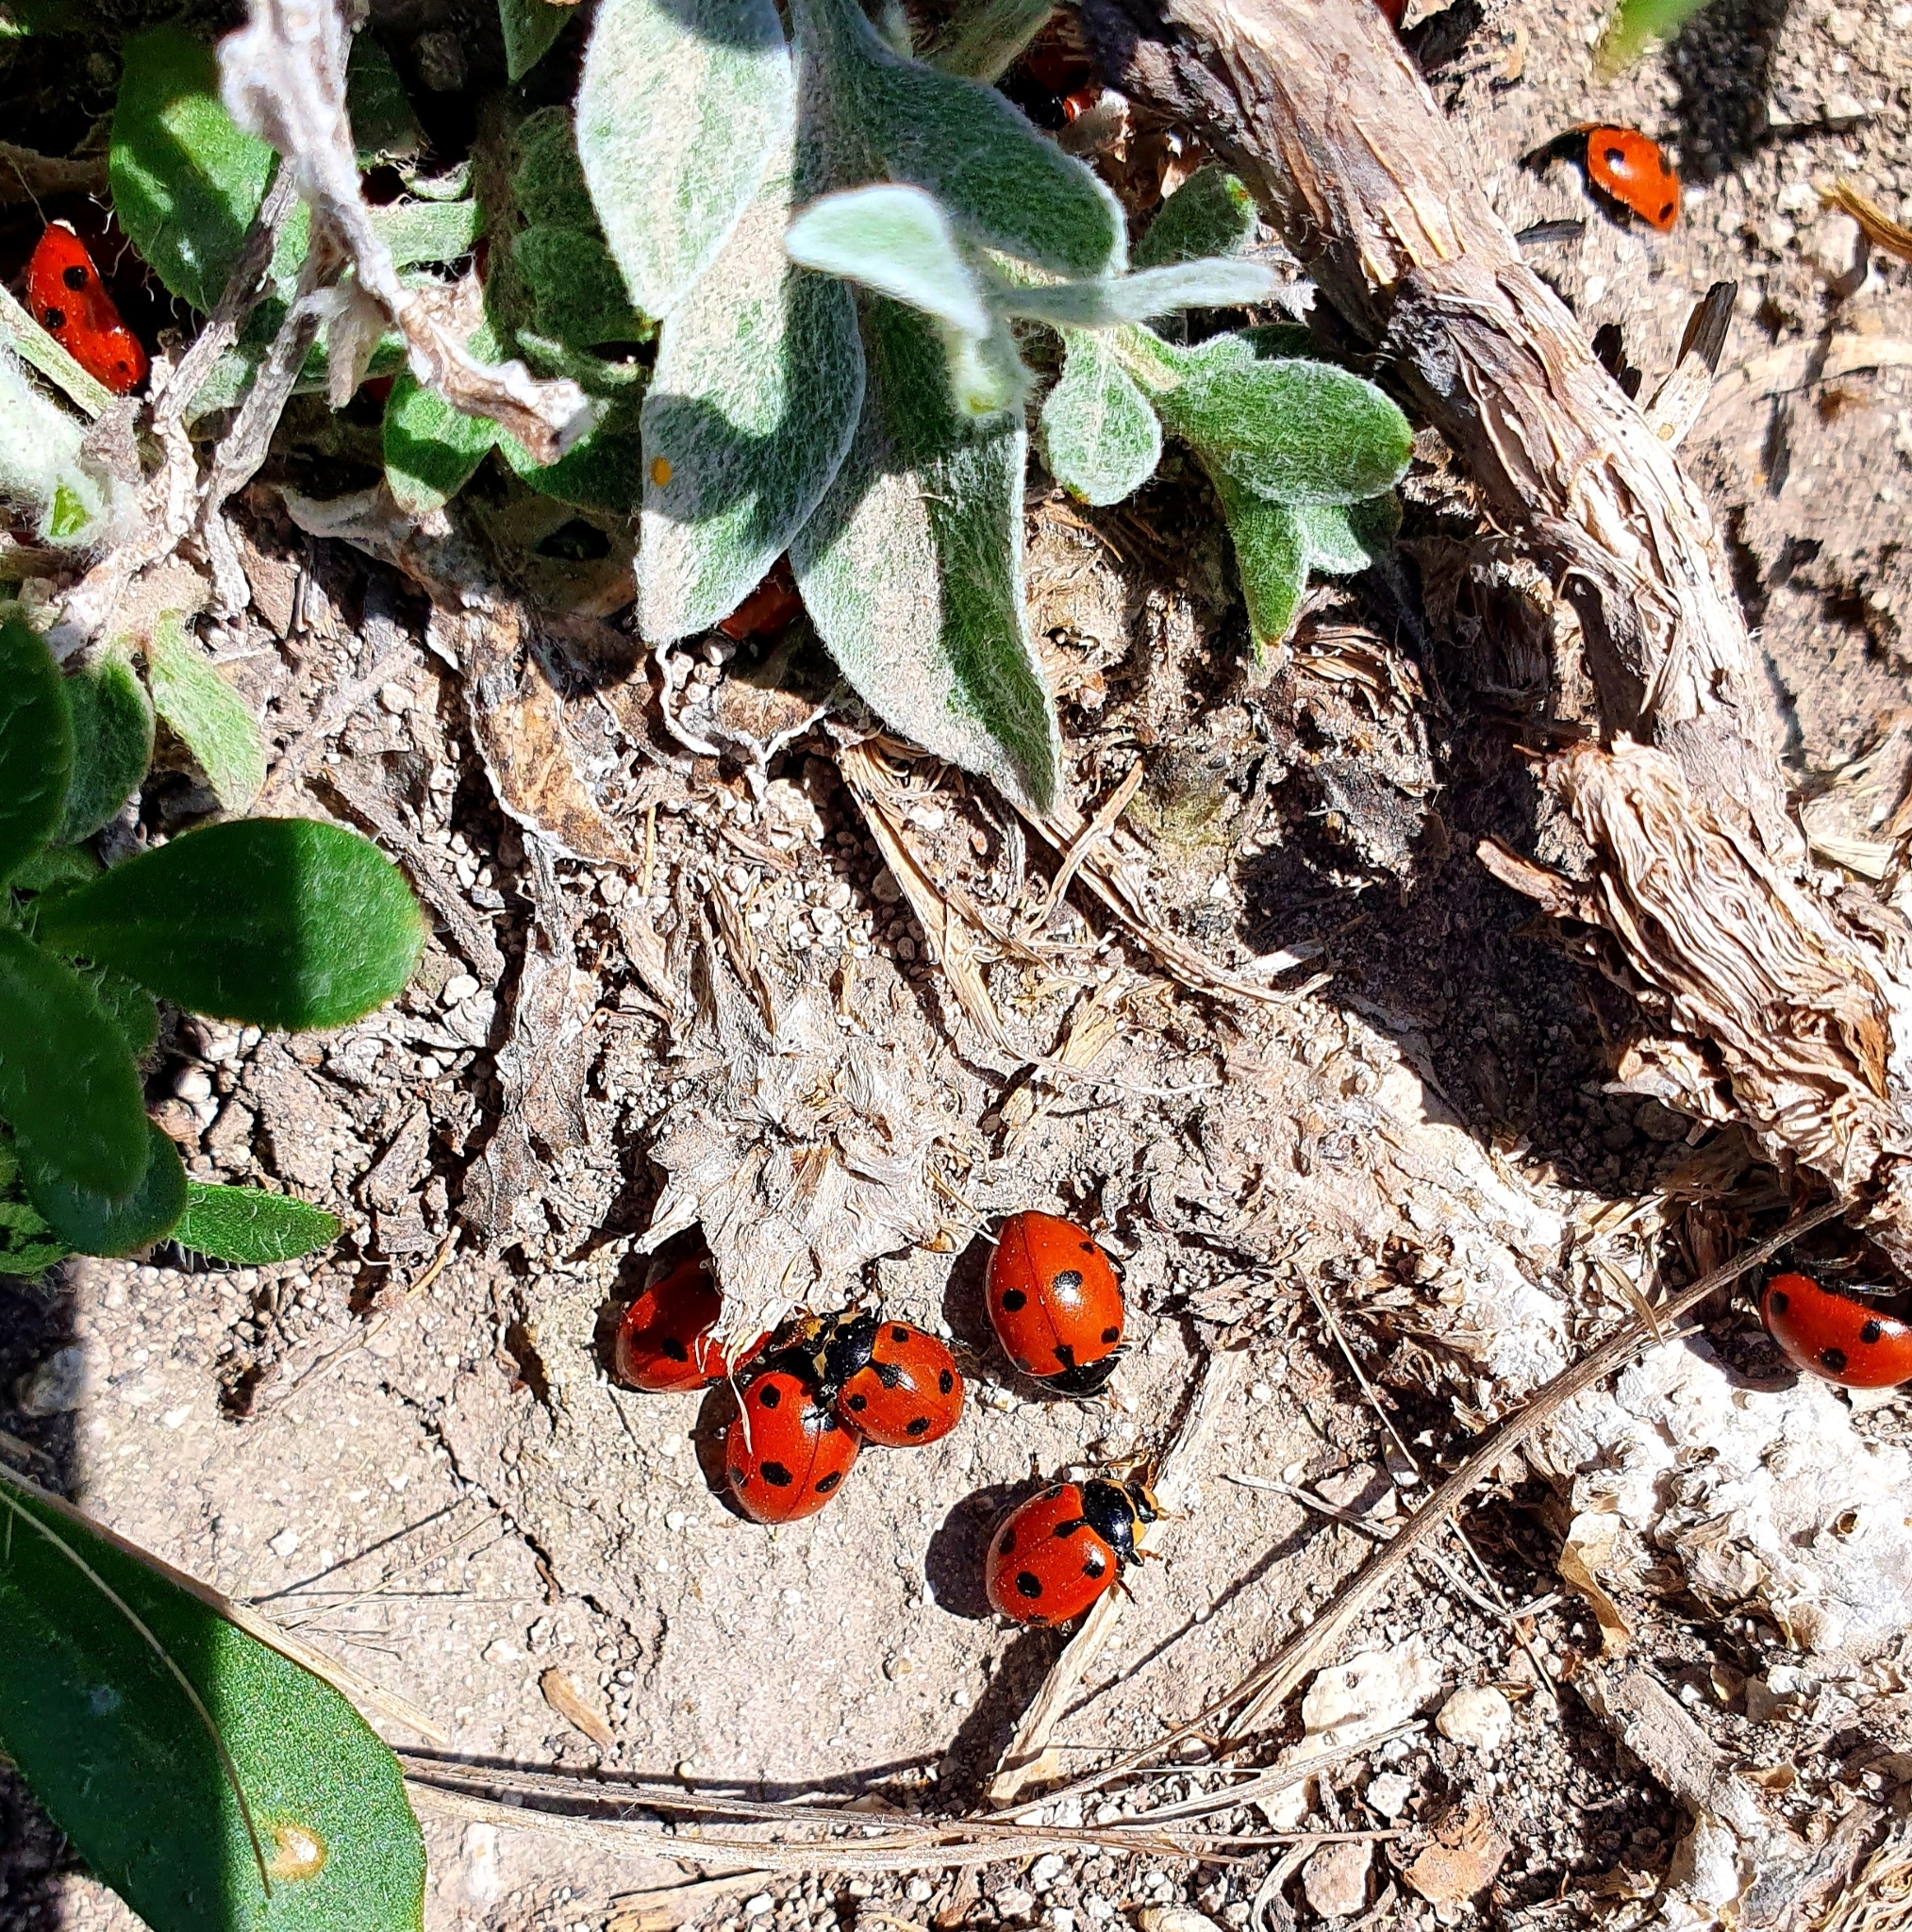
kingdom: Animalia
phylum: Arthropoda
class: Insecta
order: Coleoptera
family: Coccinellidae
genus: Ceratomegilla
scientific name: Ceratomegilla undecimnotata
